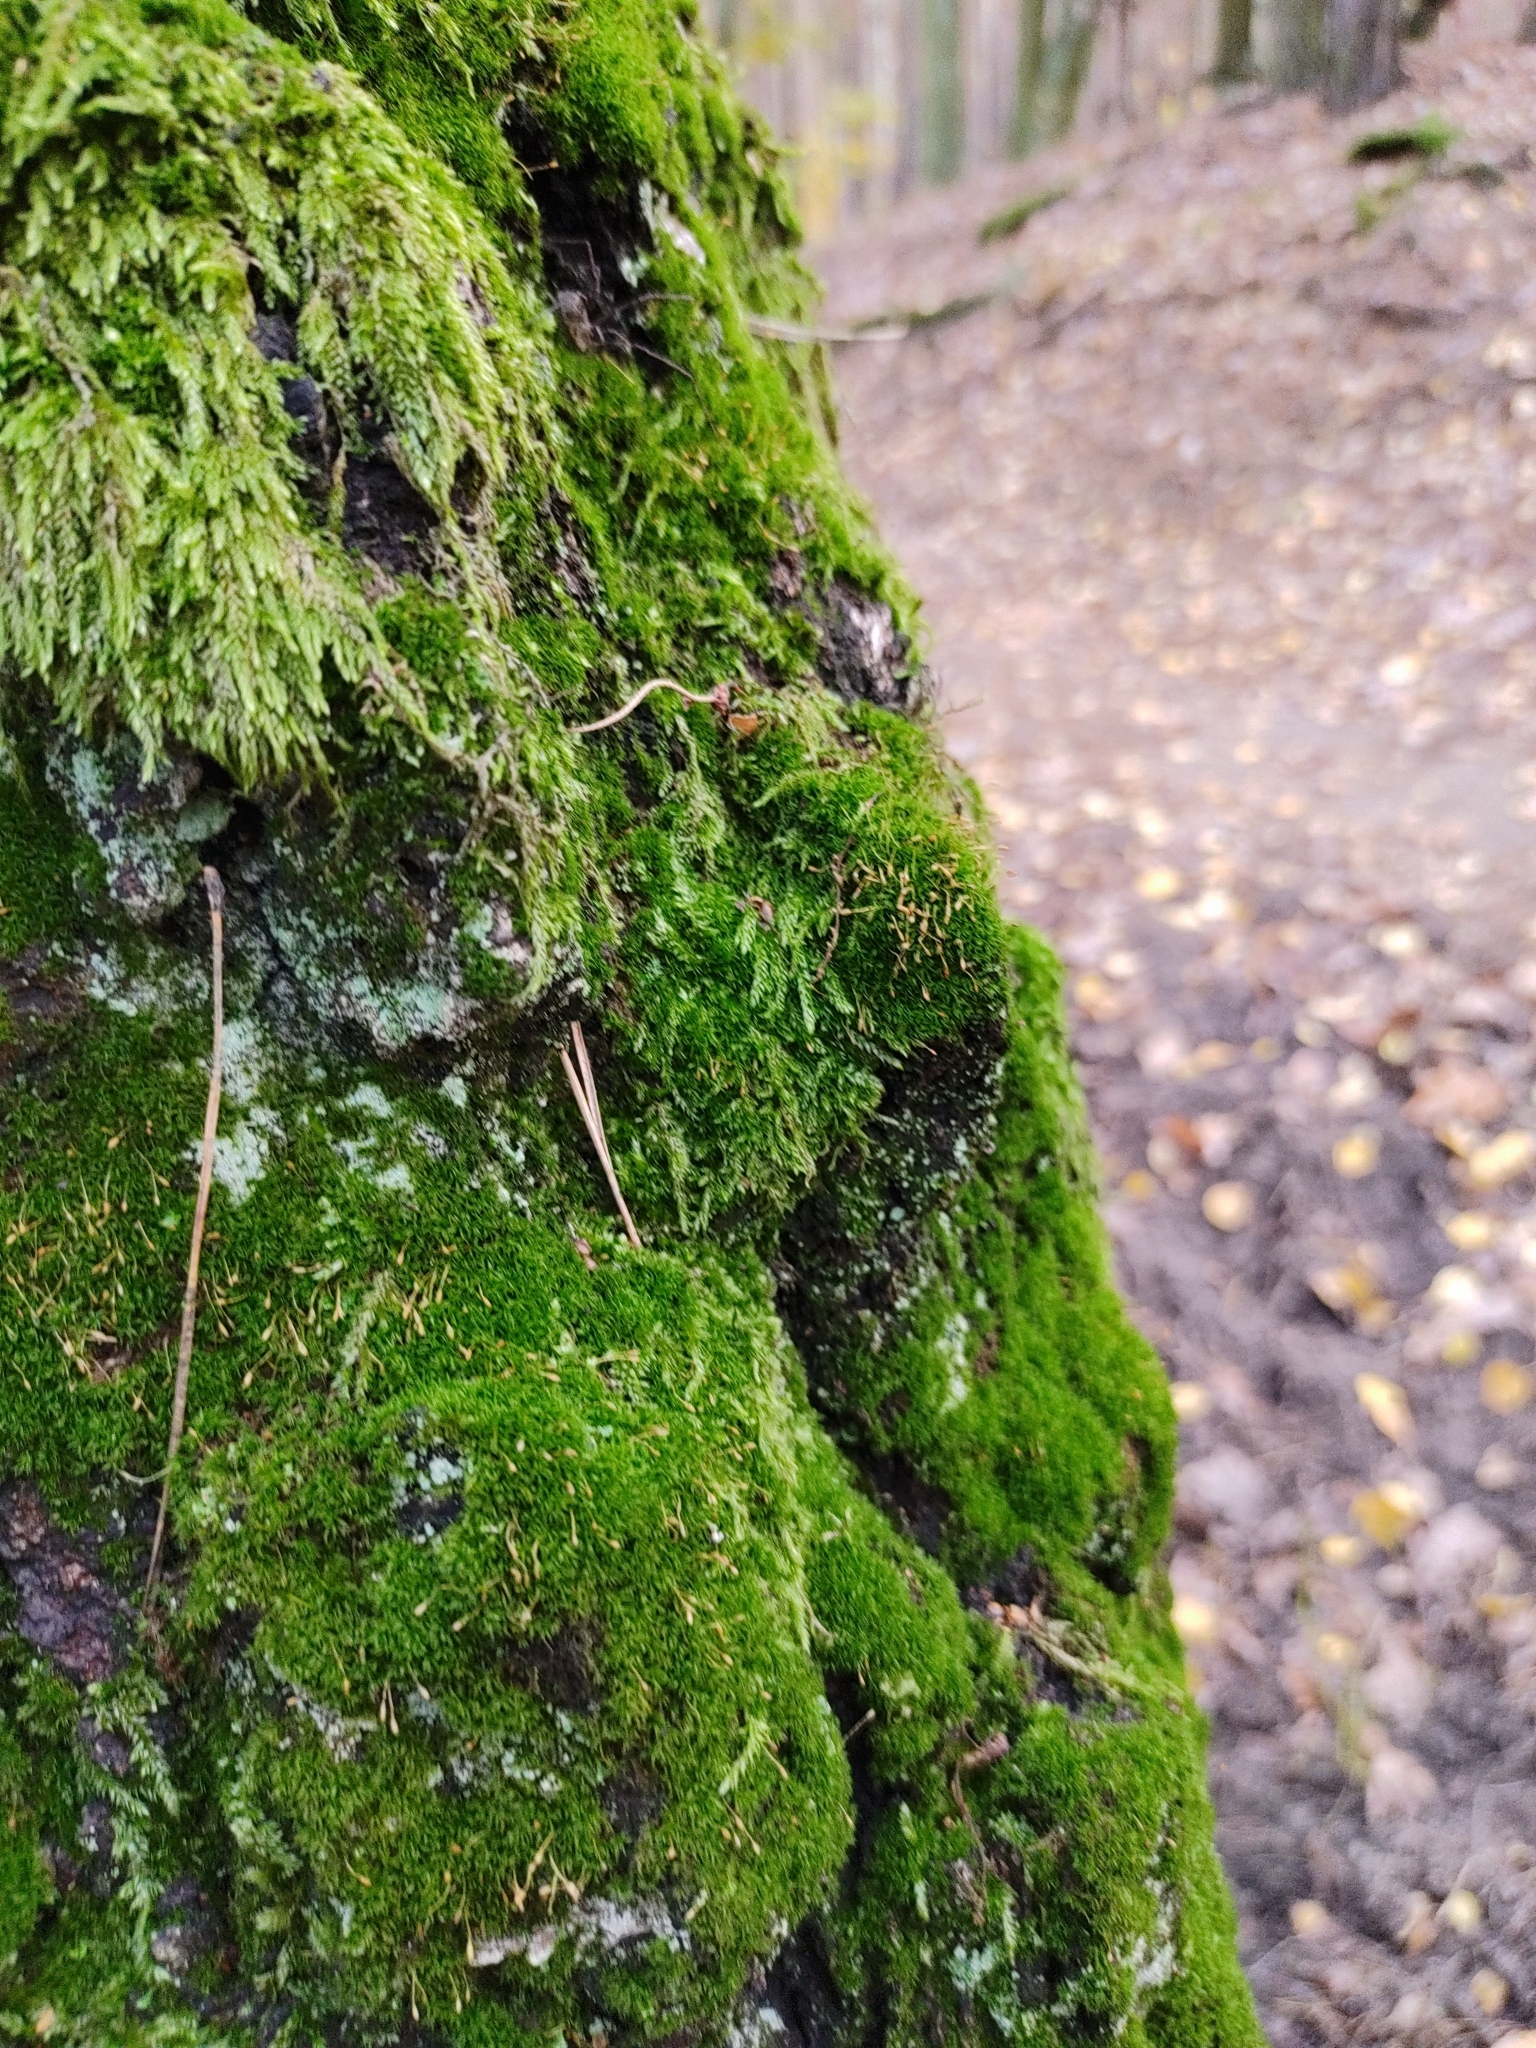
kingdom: Plantae
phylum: Bryophyta
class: Bryopsida
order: Dicranales
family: Rhabdoweisiaceae
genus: Dicranoweisia
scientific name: Dicranoweisia cirrata
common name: Common pincushion
